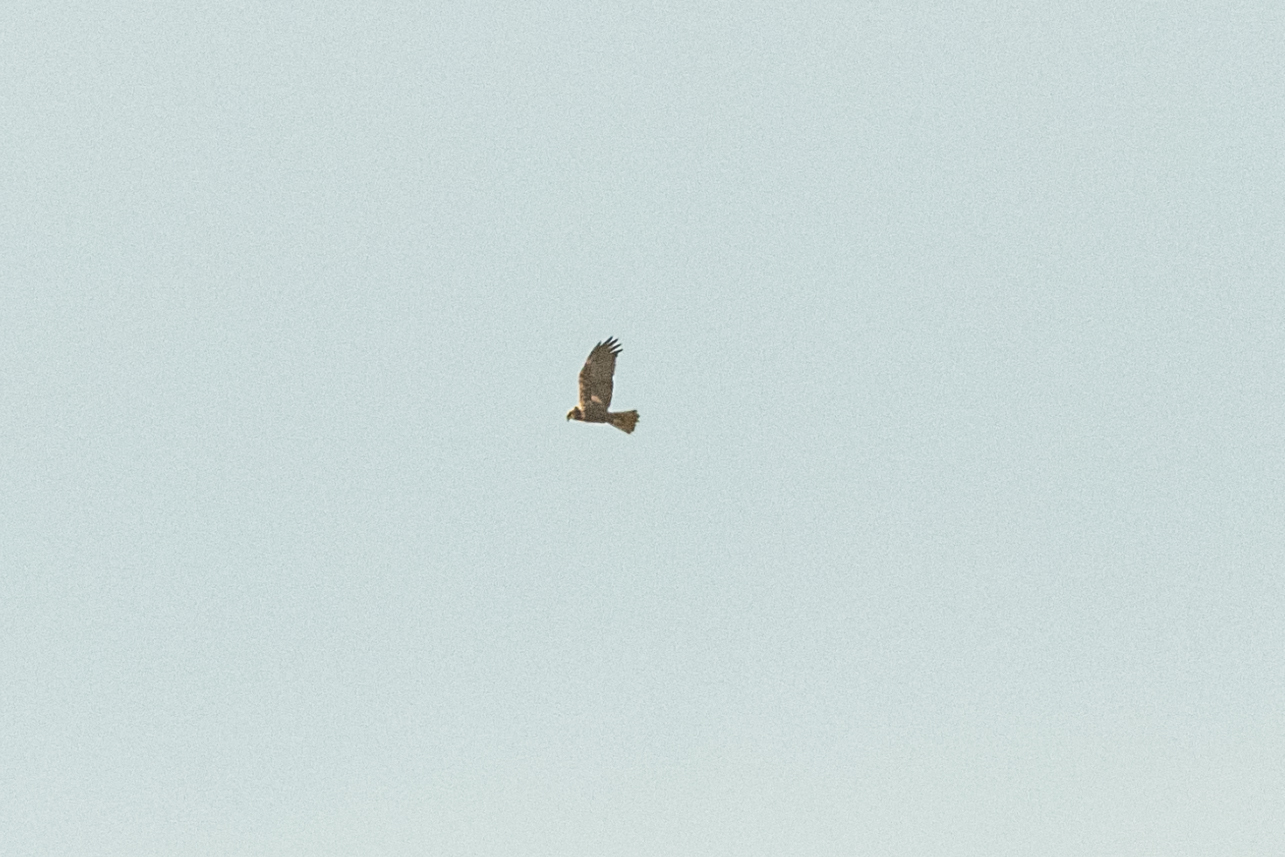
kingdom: Animalia
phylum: Chordata
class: Aves
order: Accipitriformes
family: Accipitridae
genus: Circus
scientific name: Circus aeruginosus
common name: Western marsh harrier
